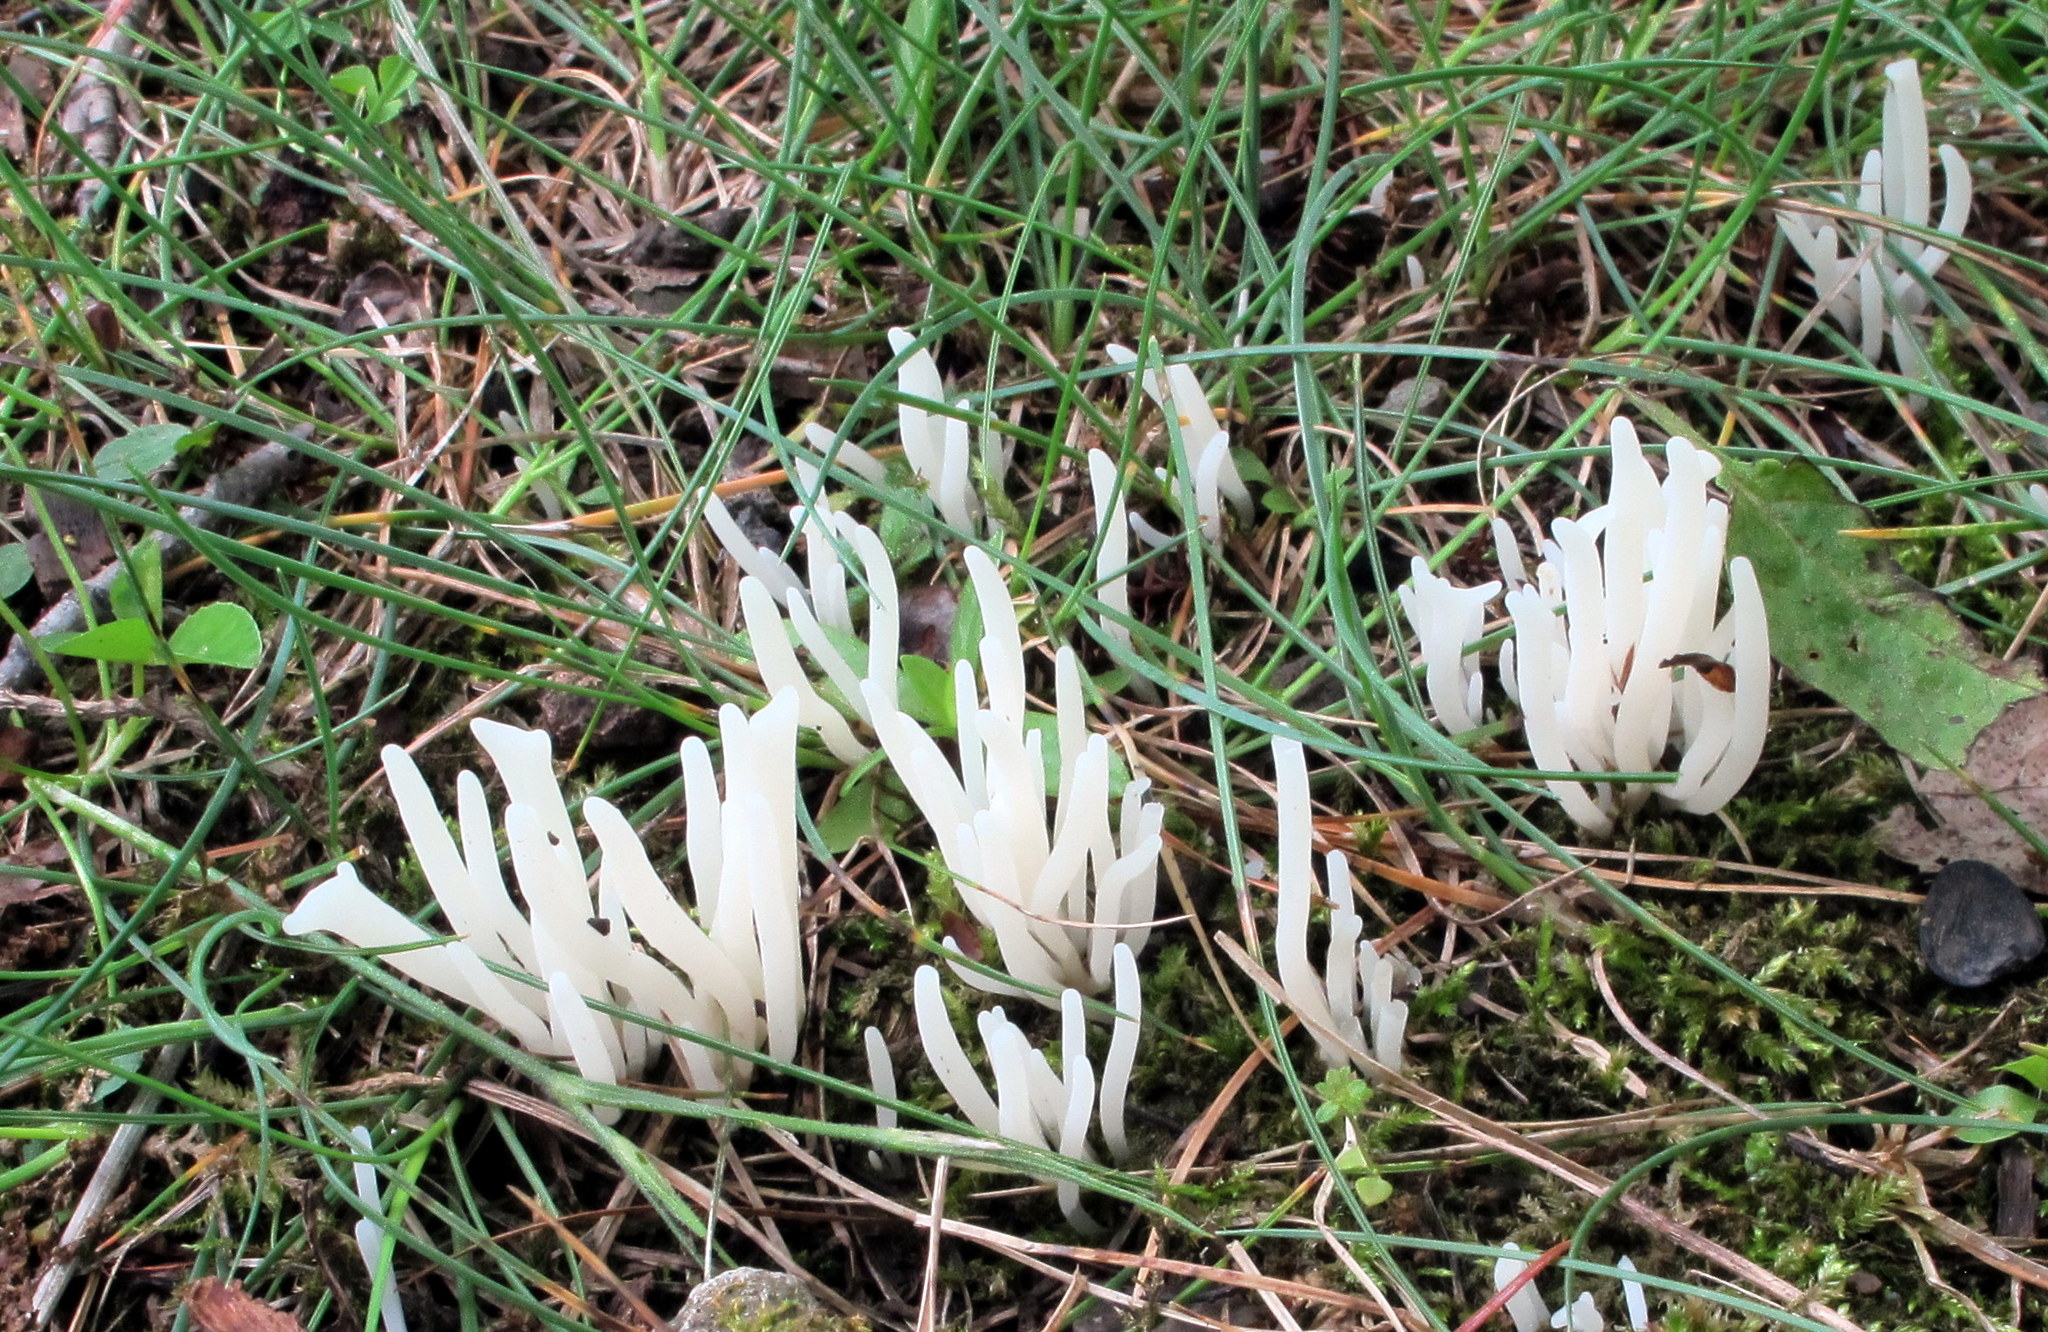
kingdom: Fungi
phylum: Basidiomycota
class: Agaricomycetes
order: Agaricales
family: Clavariaceae
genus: Clavaria
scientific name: Clavaria fragilis
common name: White spindles
